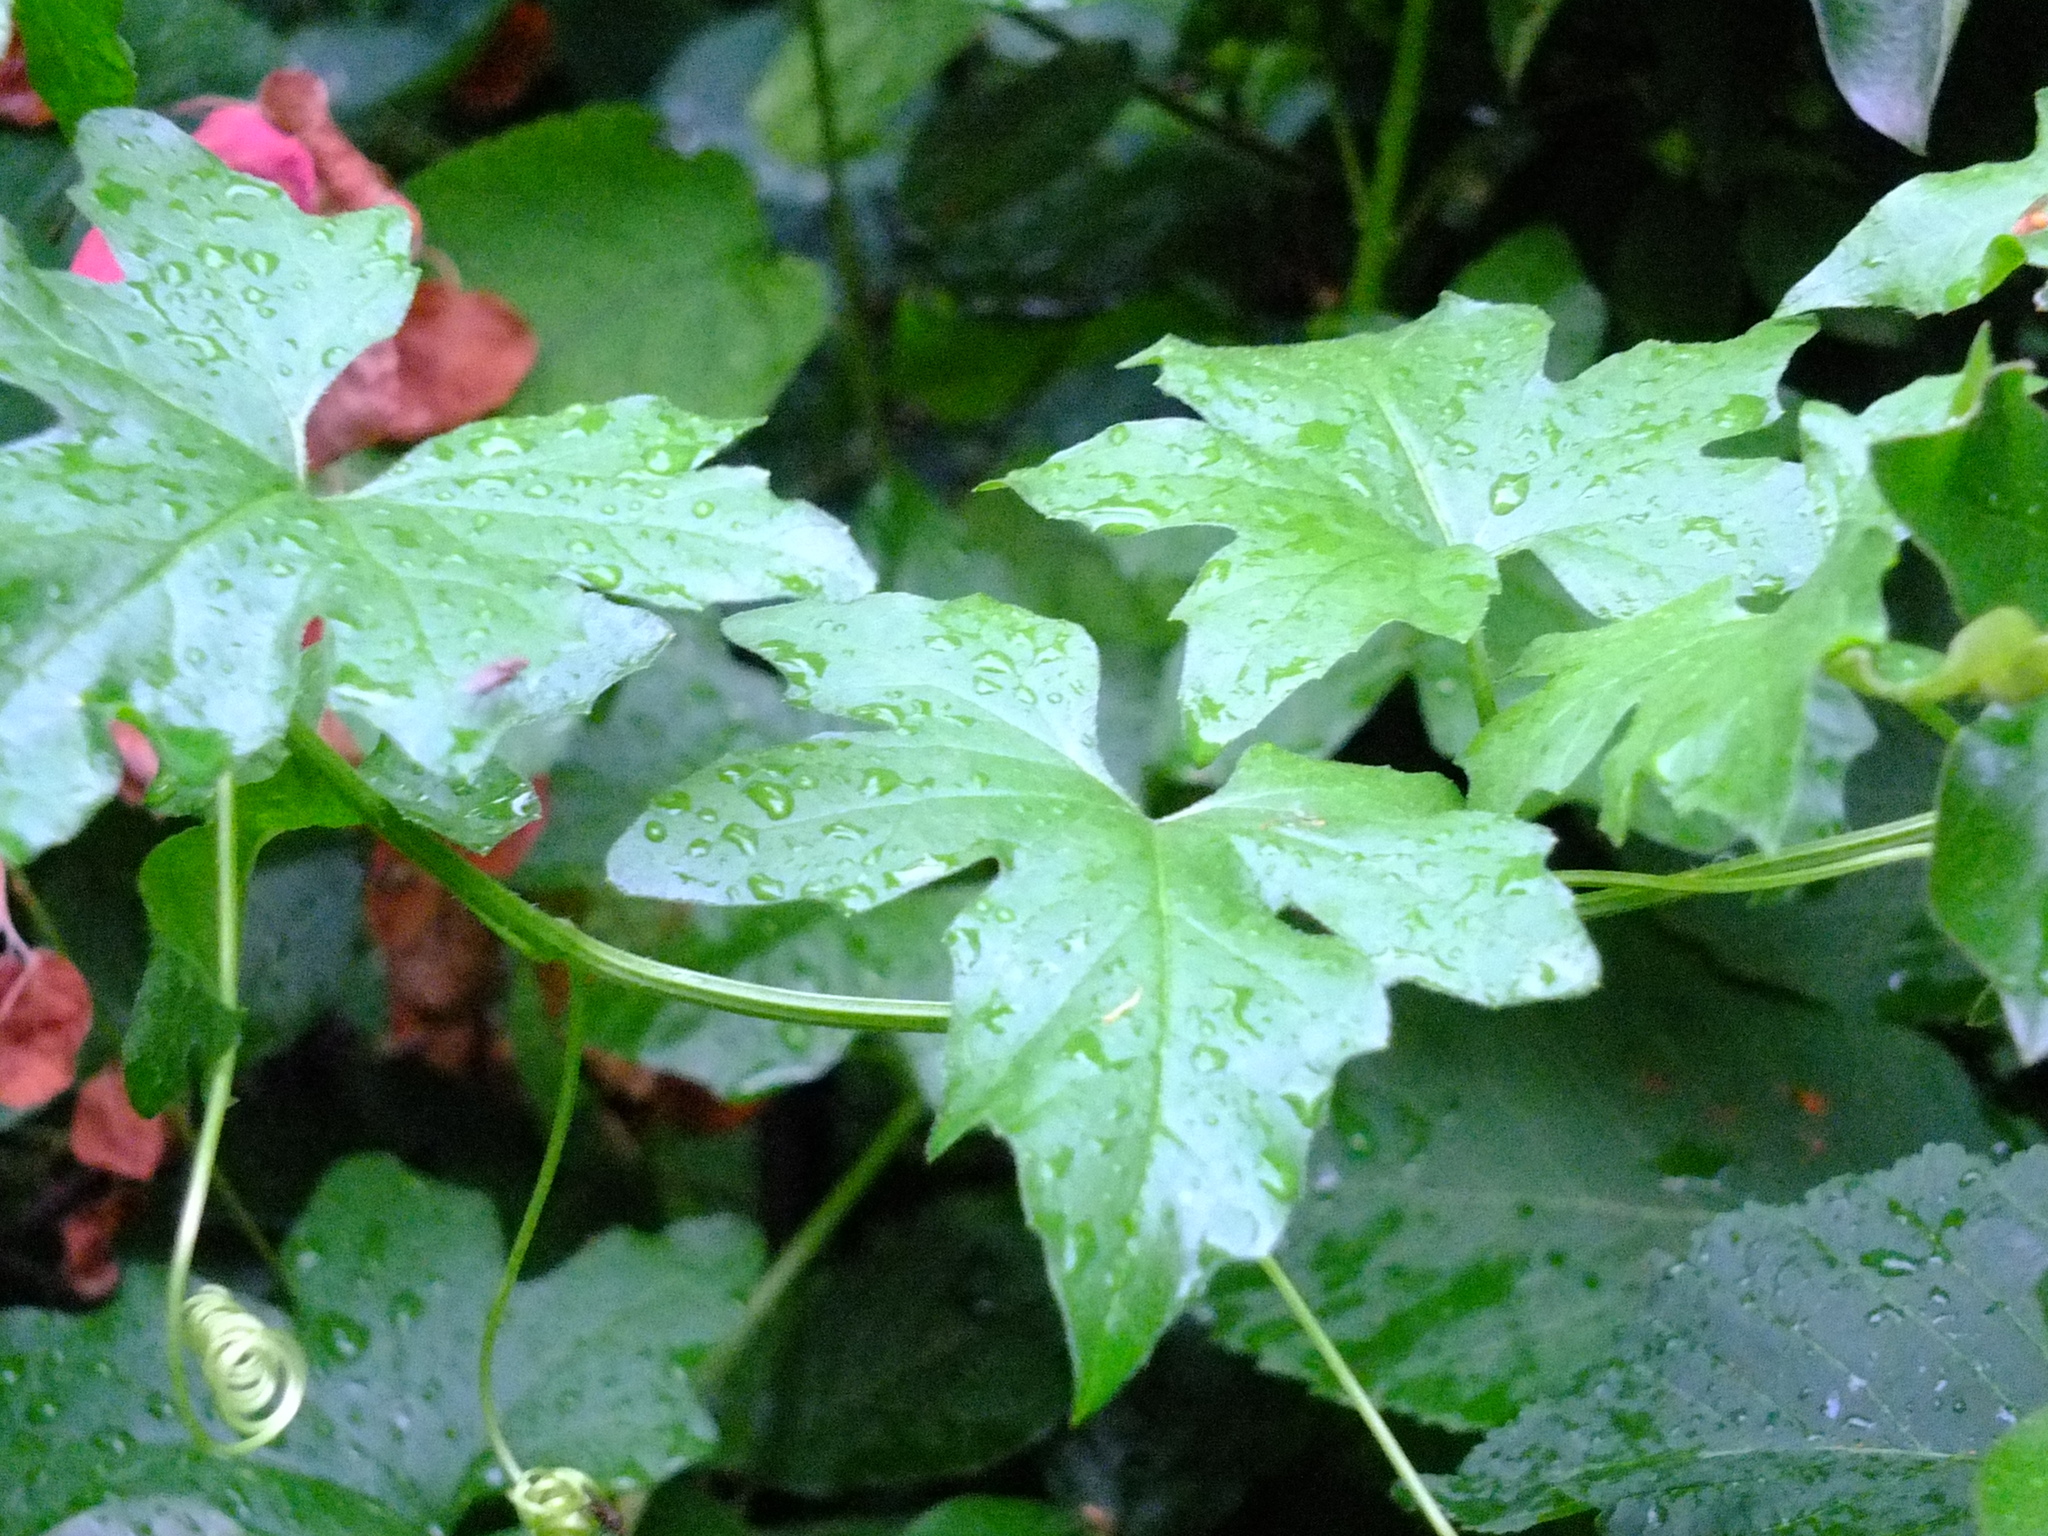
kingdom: Plantae
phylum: Tracheophyta
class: Magnoliopsida
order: Cucurbitales
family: Cucurbitaceae
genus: Bryonia
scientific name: Bryonia alba
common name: White bryony
